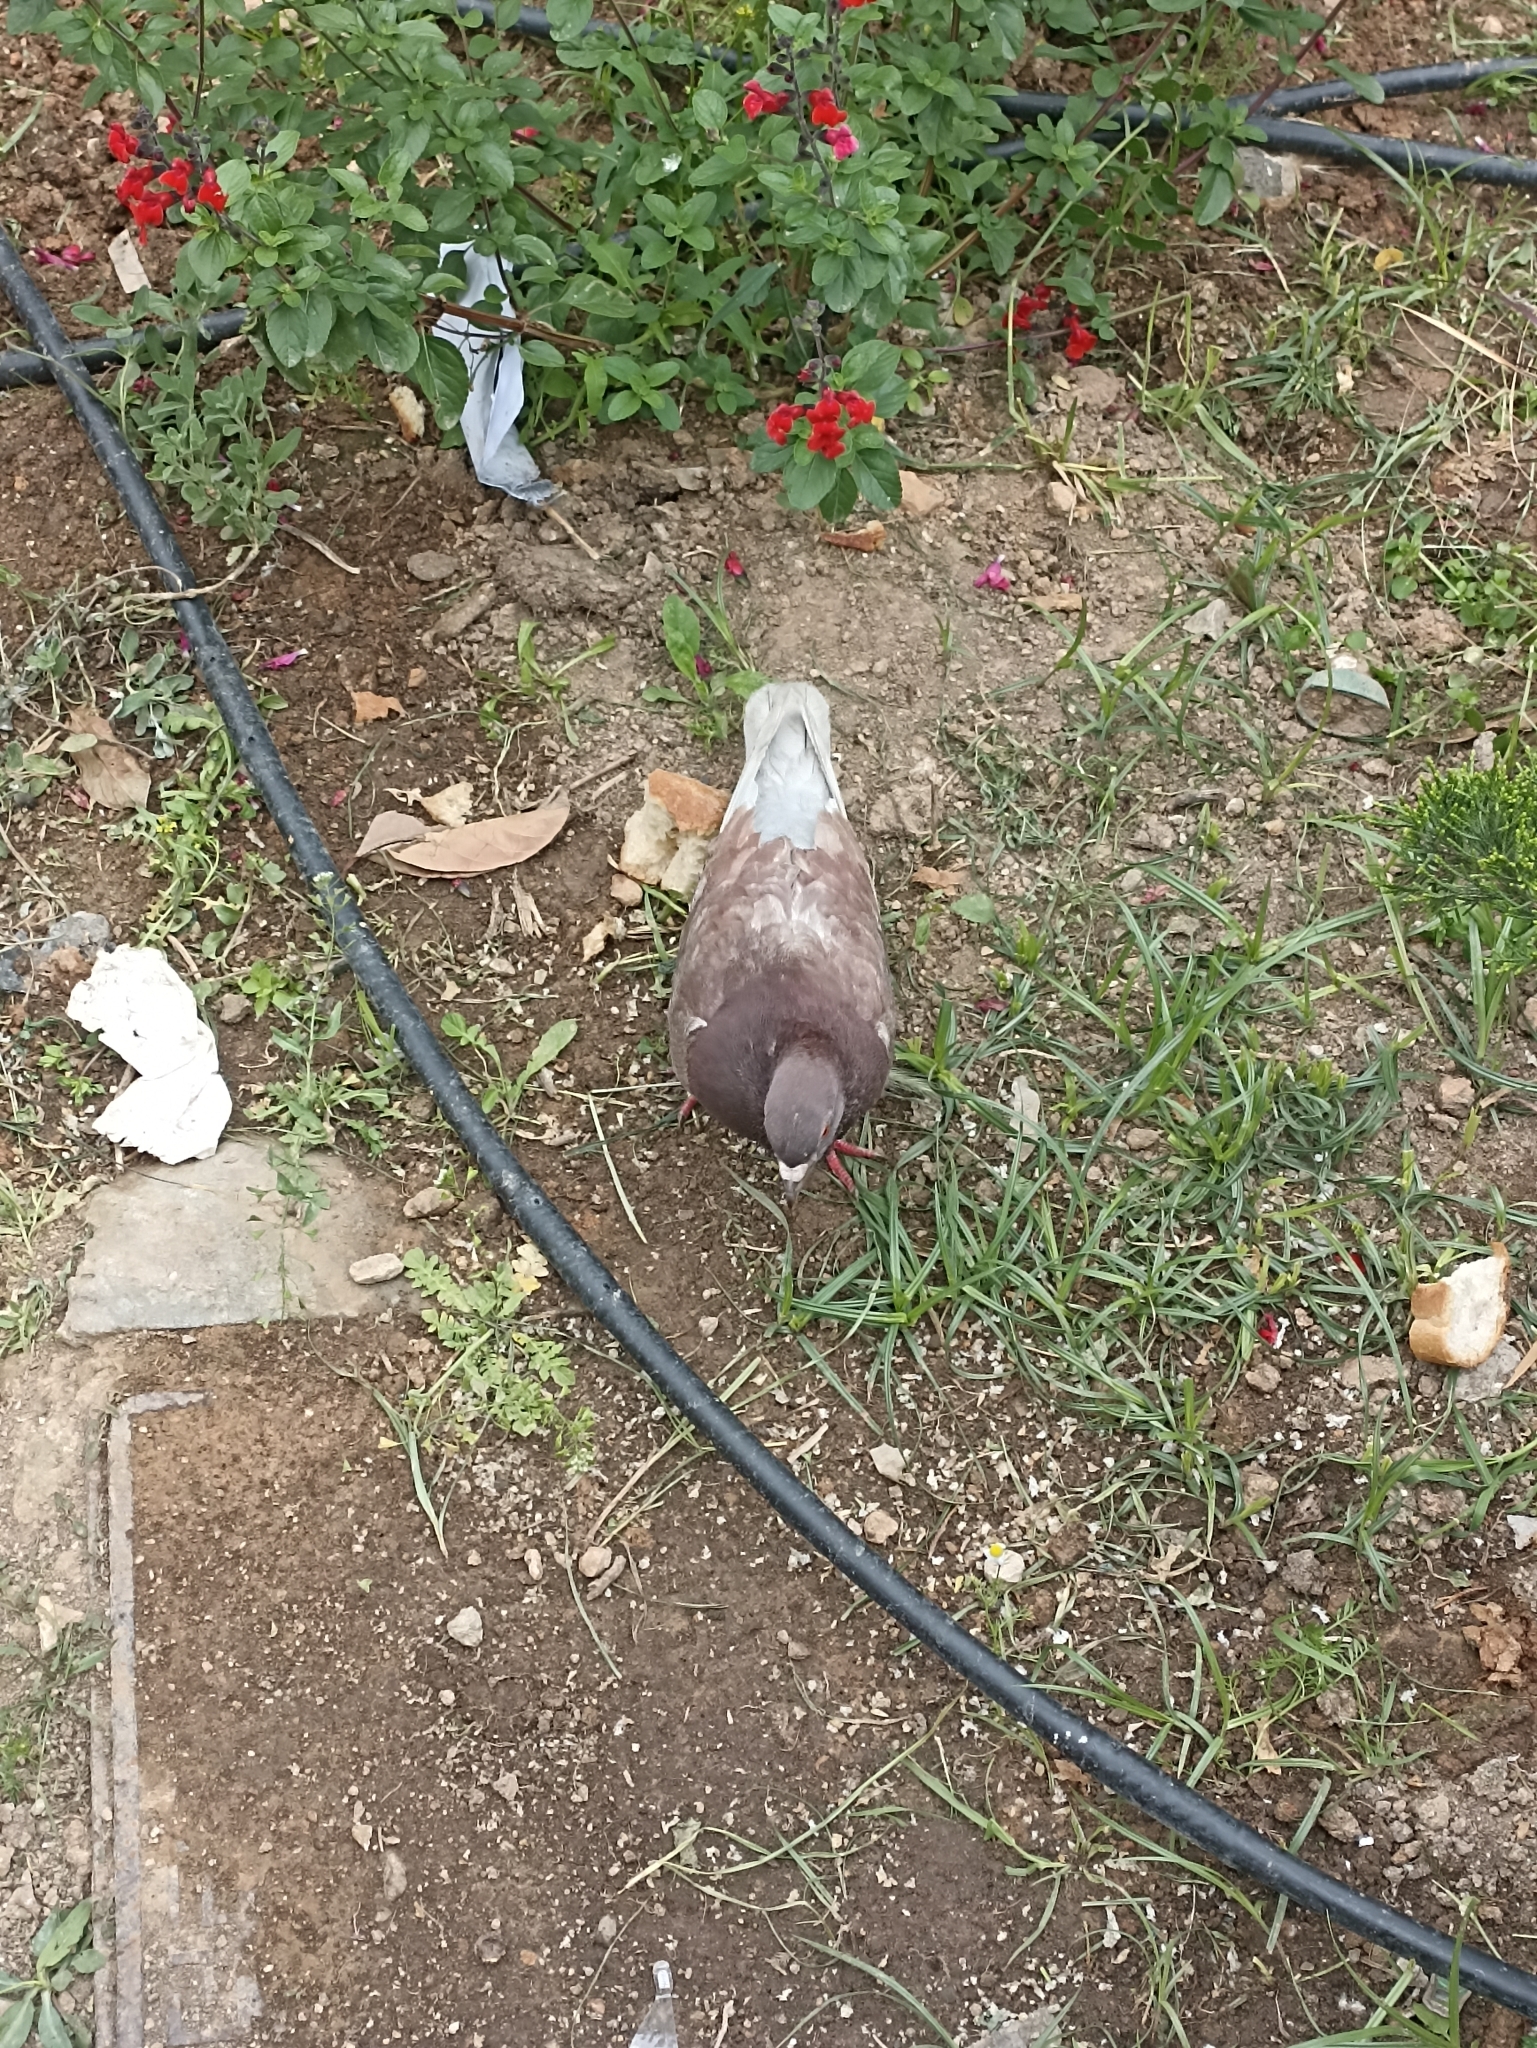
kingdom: Animalia
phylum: Chordata
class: Aves
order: Columbiformes
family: Columbidae
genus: Columba
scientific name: Columba livia
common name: Rock pigeon
